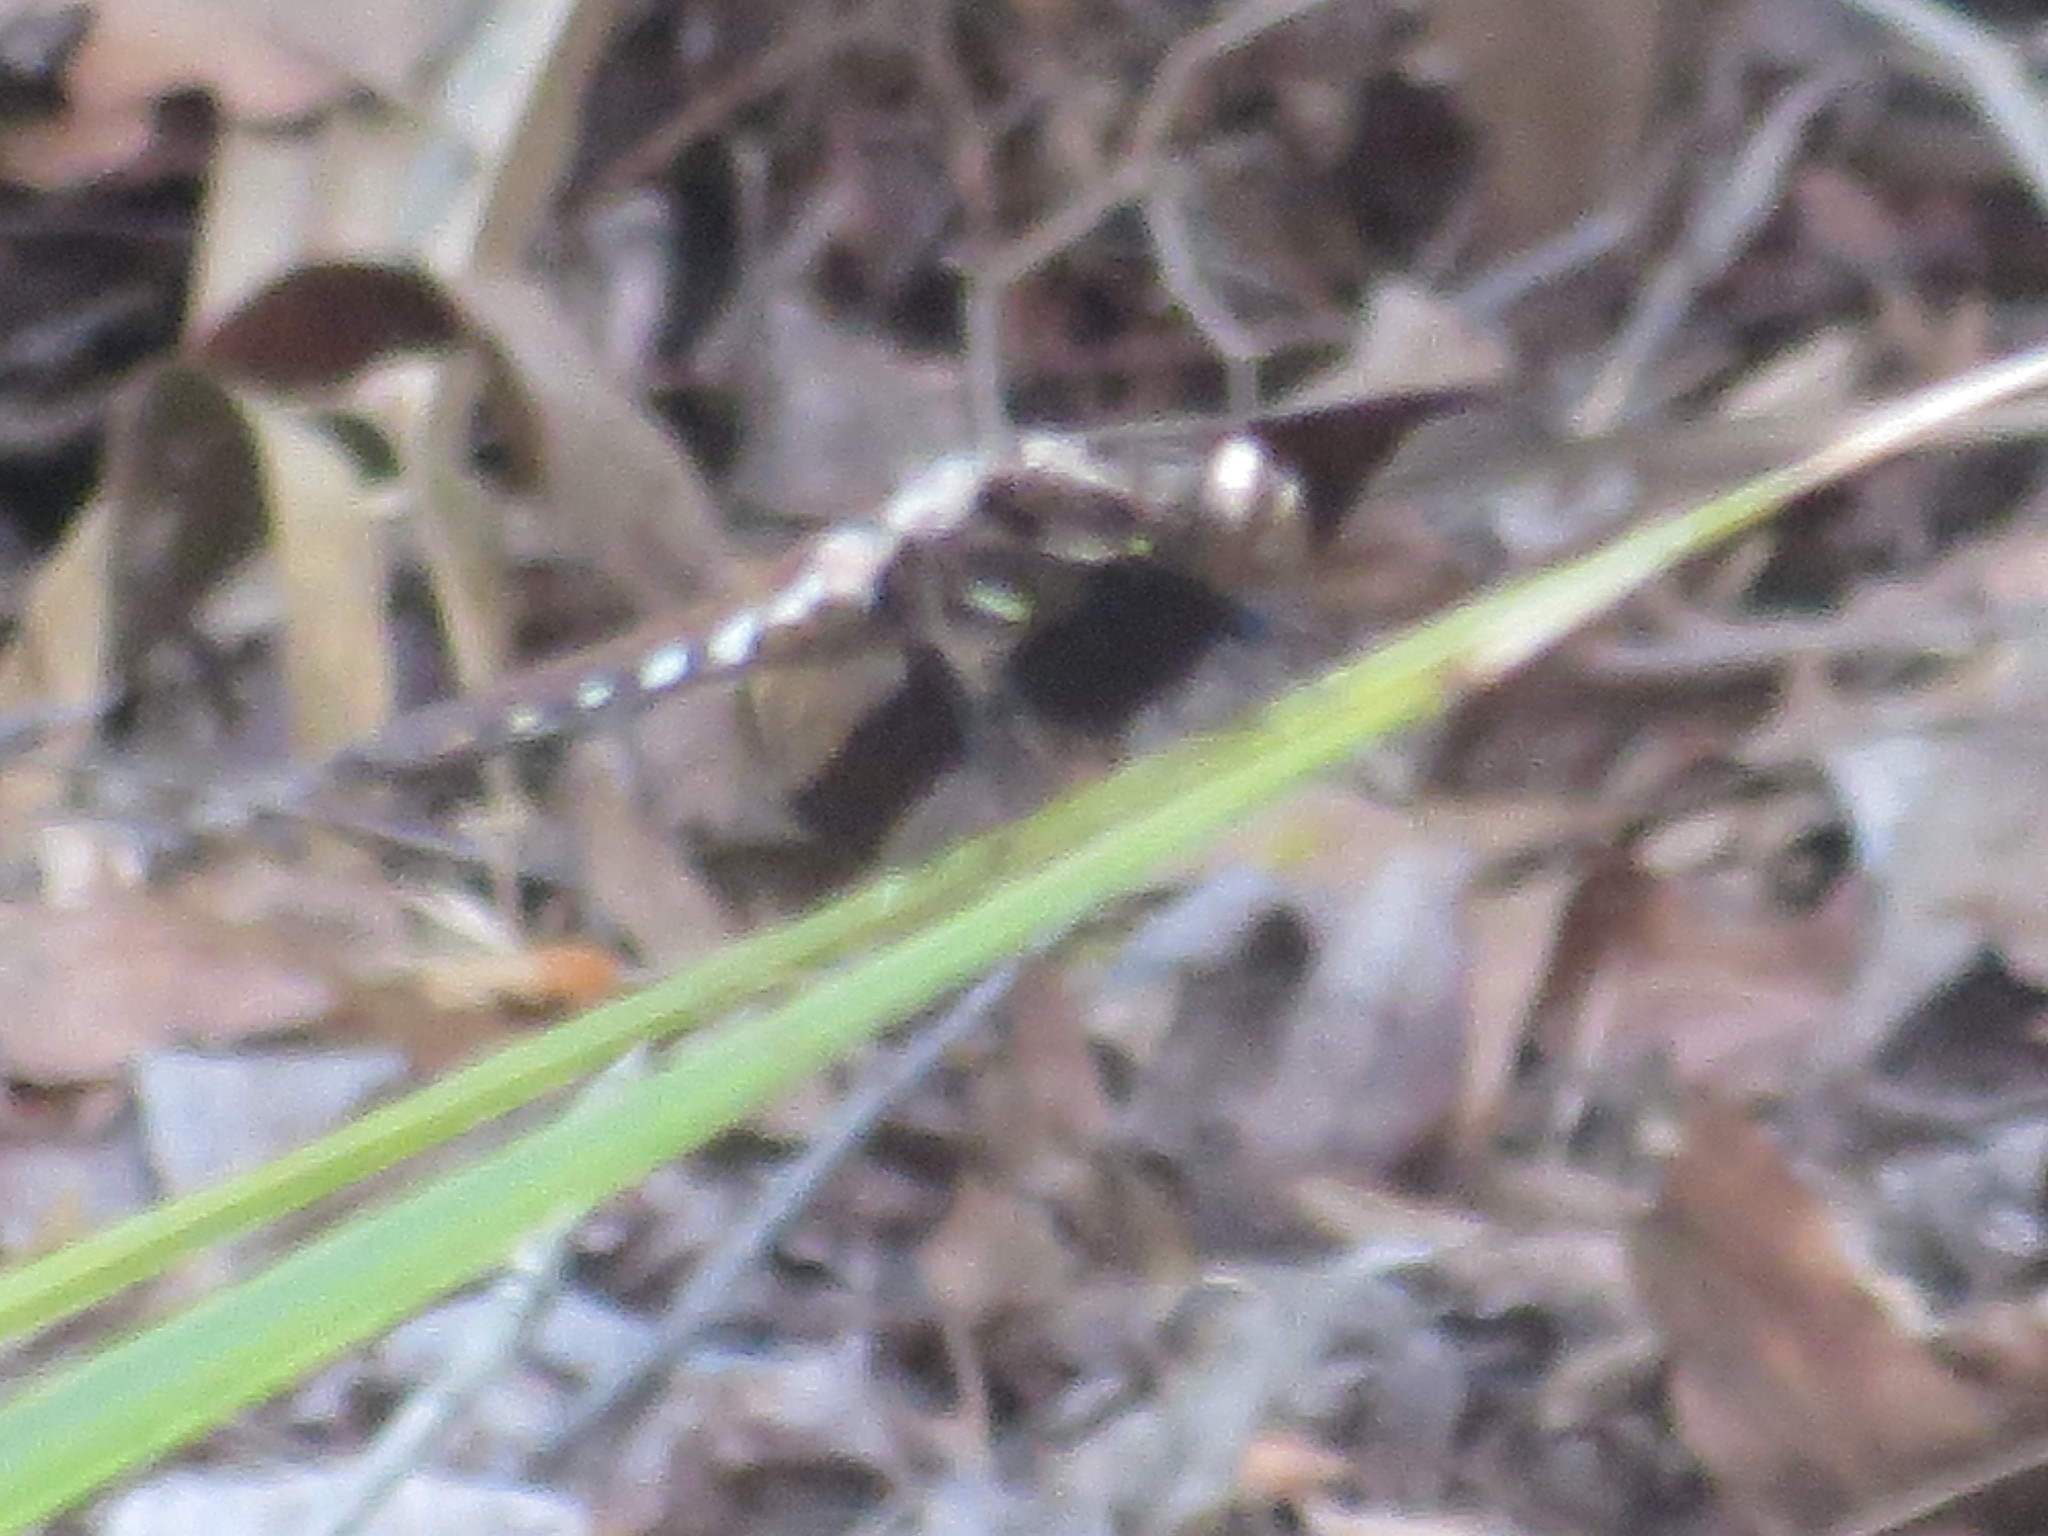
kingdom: Animalia
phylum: Arthropoda
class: Insecta
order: Odonata
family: Libellulidae
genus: Plathemis
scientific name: Plathemis lydia
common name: Common whitetail
